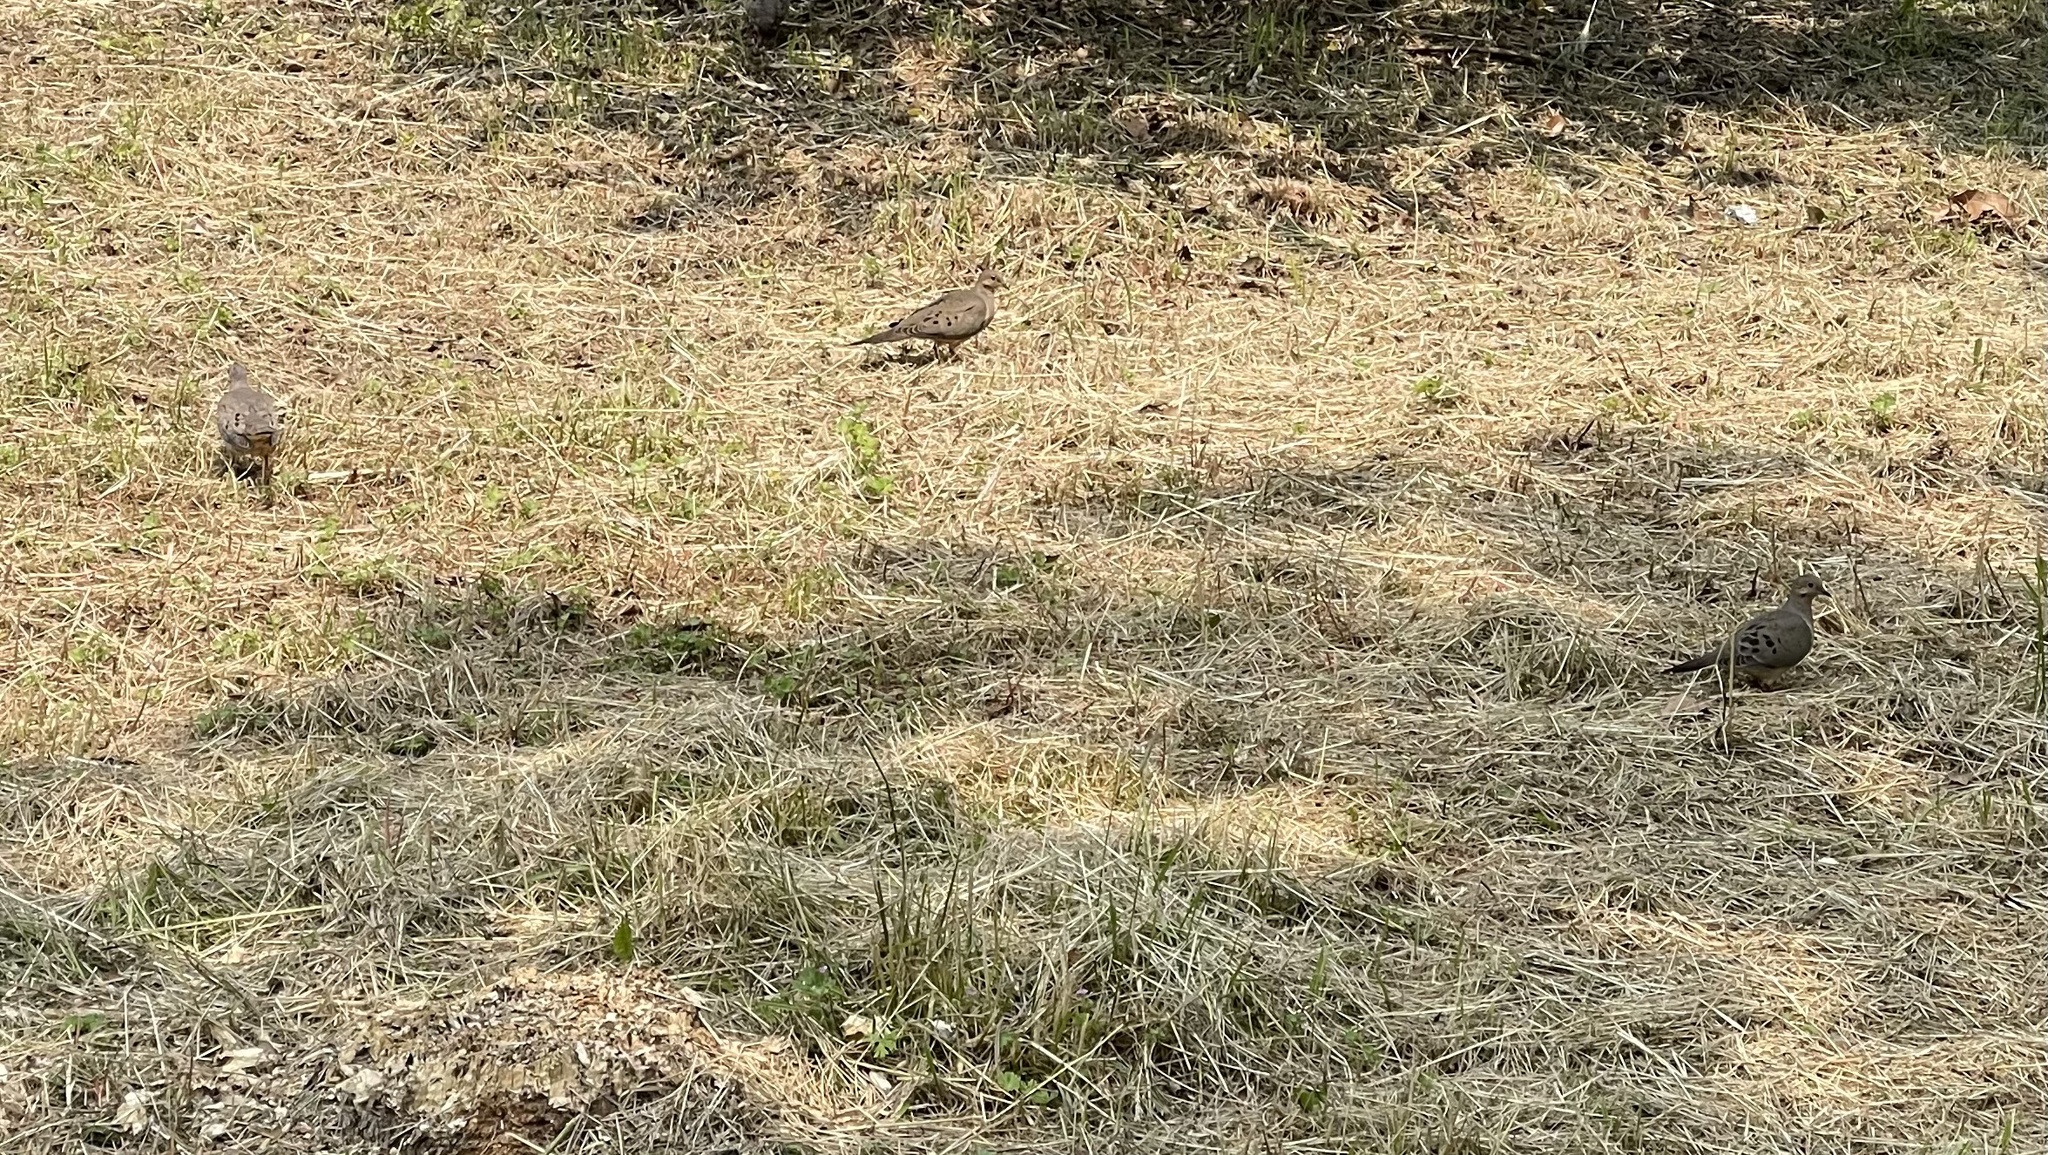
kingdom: Animalia
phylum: Chordata
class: Aves
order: Columbiformes
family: Columbidae
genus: Zenaida
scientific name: Zenaida macroura
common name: Mourning dove
